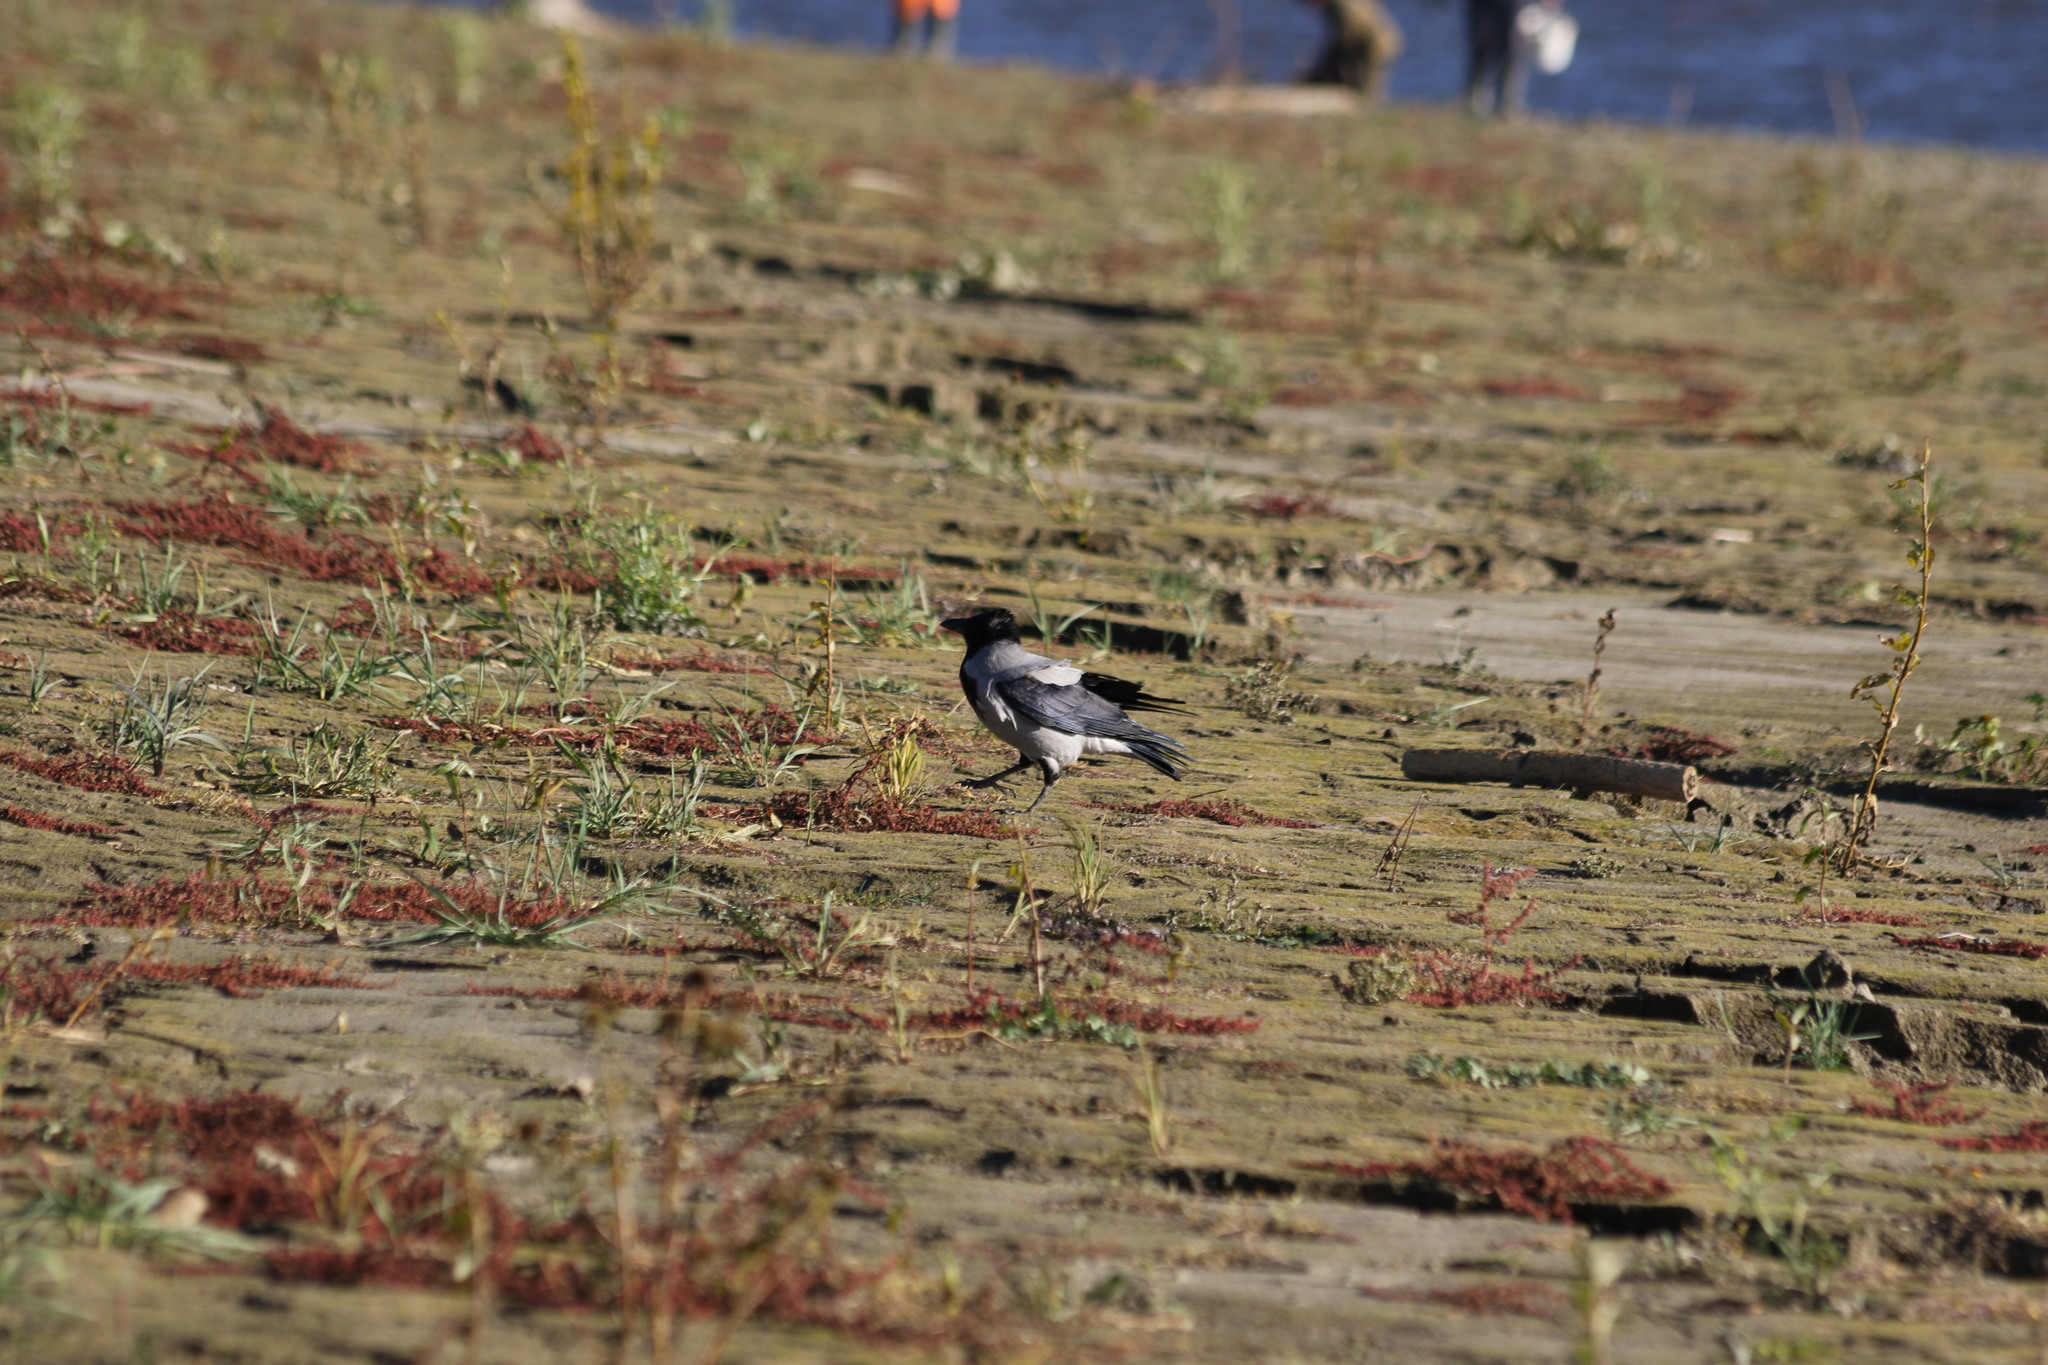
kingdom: Animalia
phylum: Chordata
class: Aves
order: Passeriformes
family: Corvidae
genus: Corvus
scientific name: Corvus cornix
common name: Hooded crow
